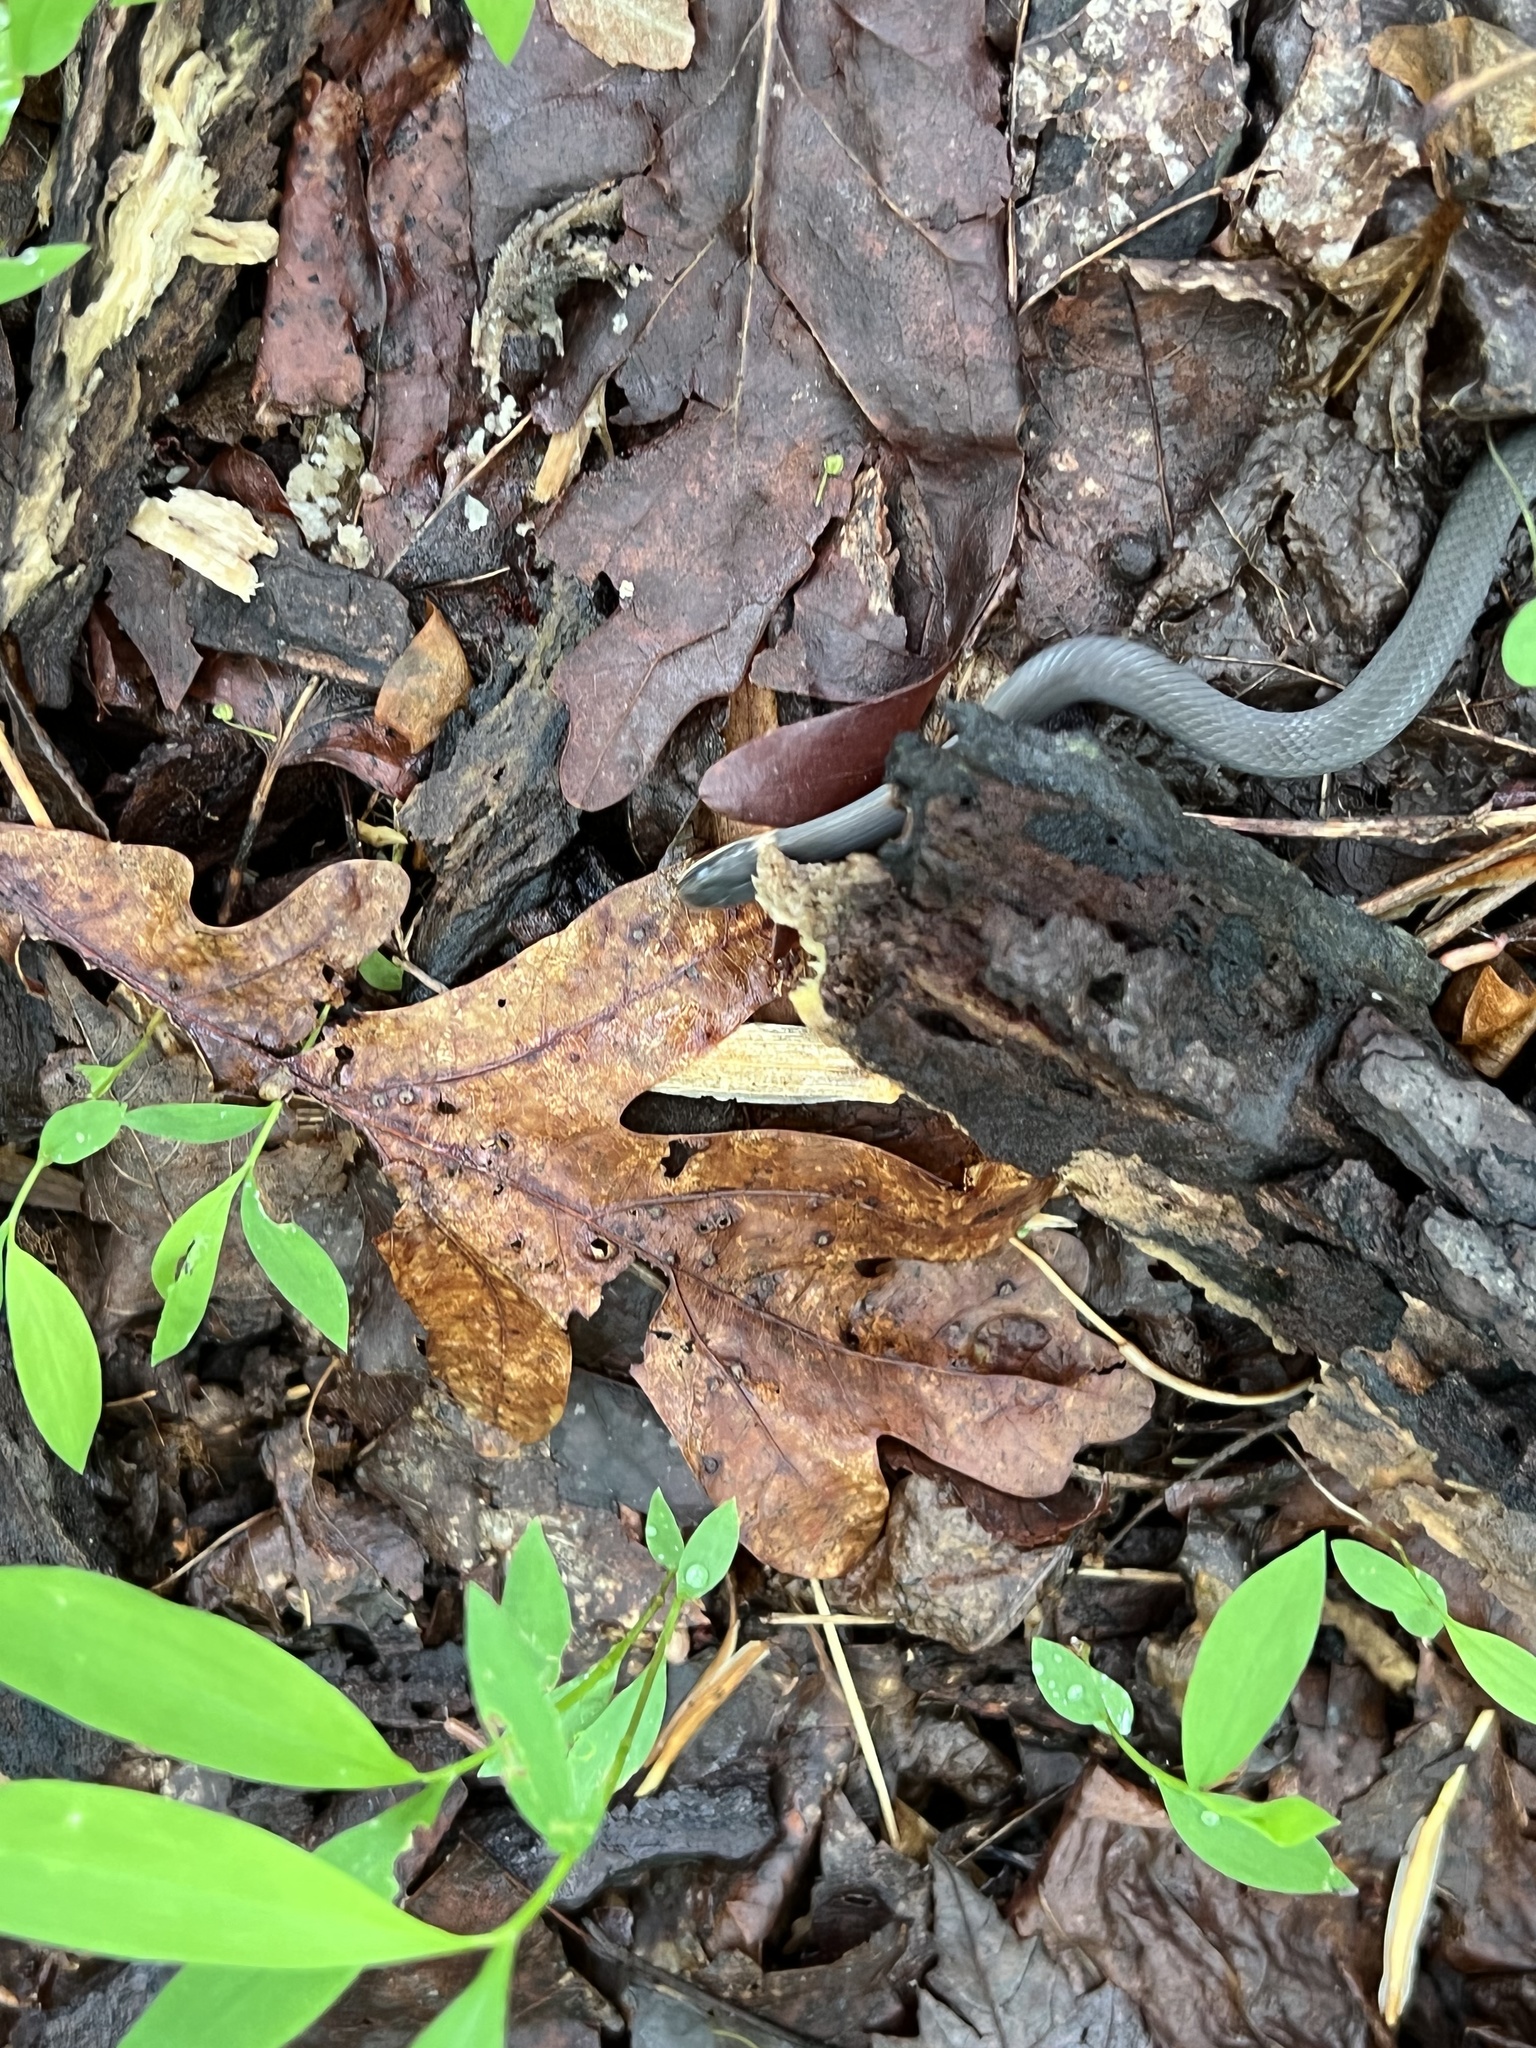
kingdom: Animalia
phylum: Chordata
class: Squamata
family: Colubridae
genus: Diadophis
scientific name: Diadophis punctatus
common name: Ringneck snake
